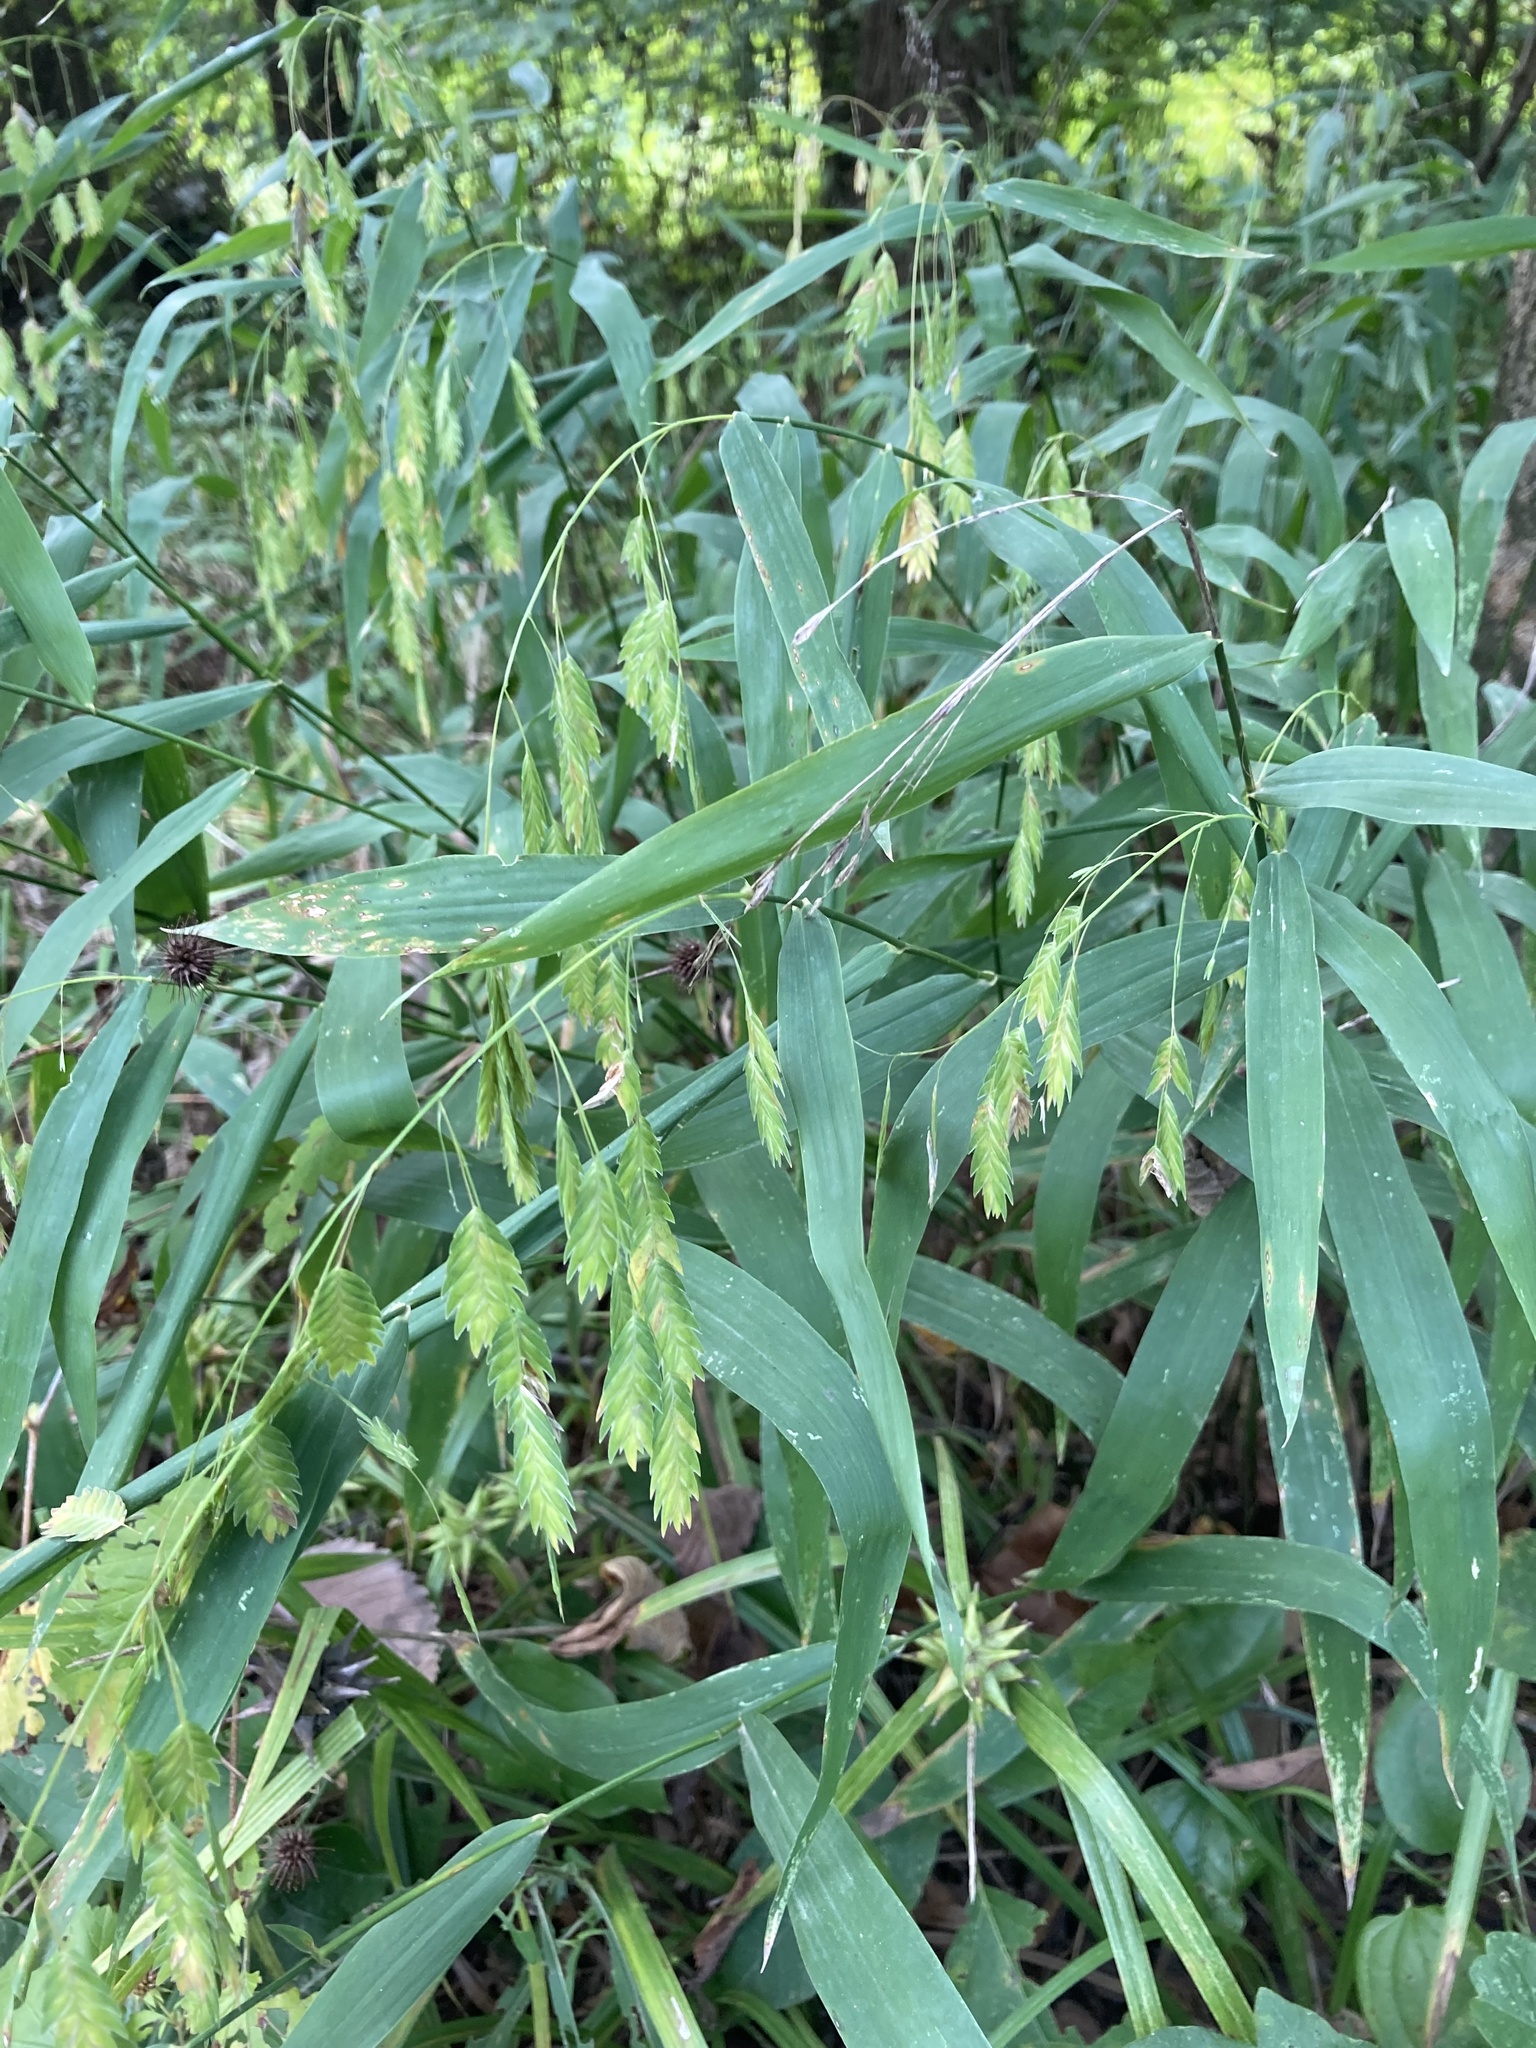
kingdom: Plantae
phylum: Tracheophyta
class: Liliopsida
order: Poales
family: Poaceae
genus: Chasmanthium
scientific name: Chasmanthium latifolium
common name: Broad-leaved chasmanthium
